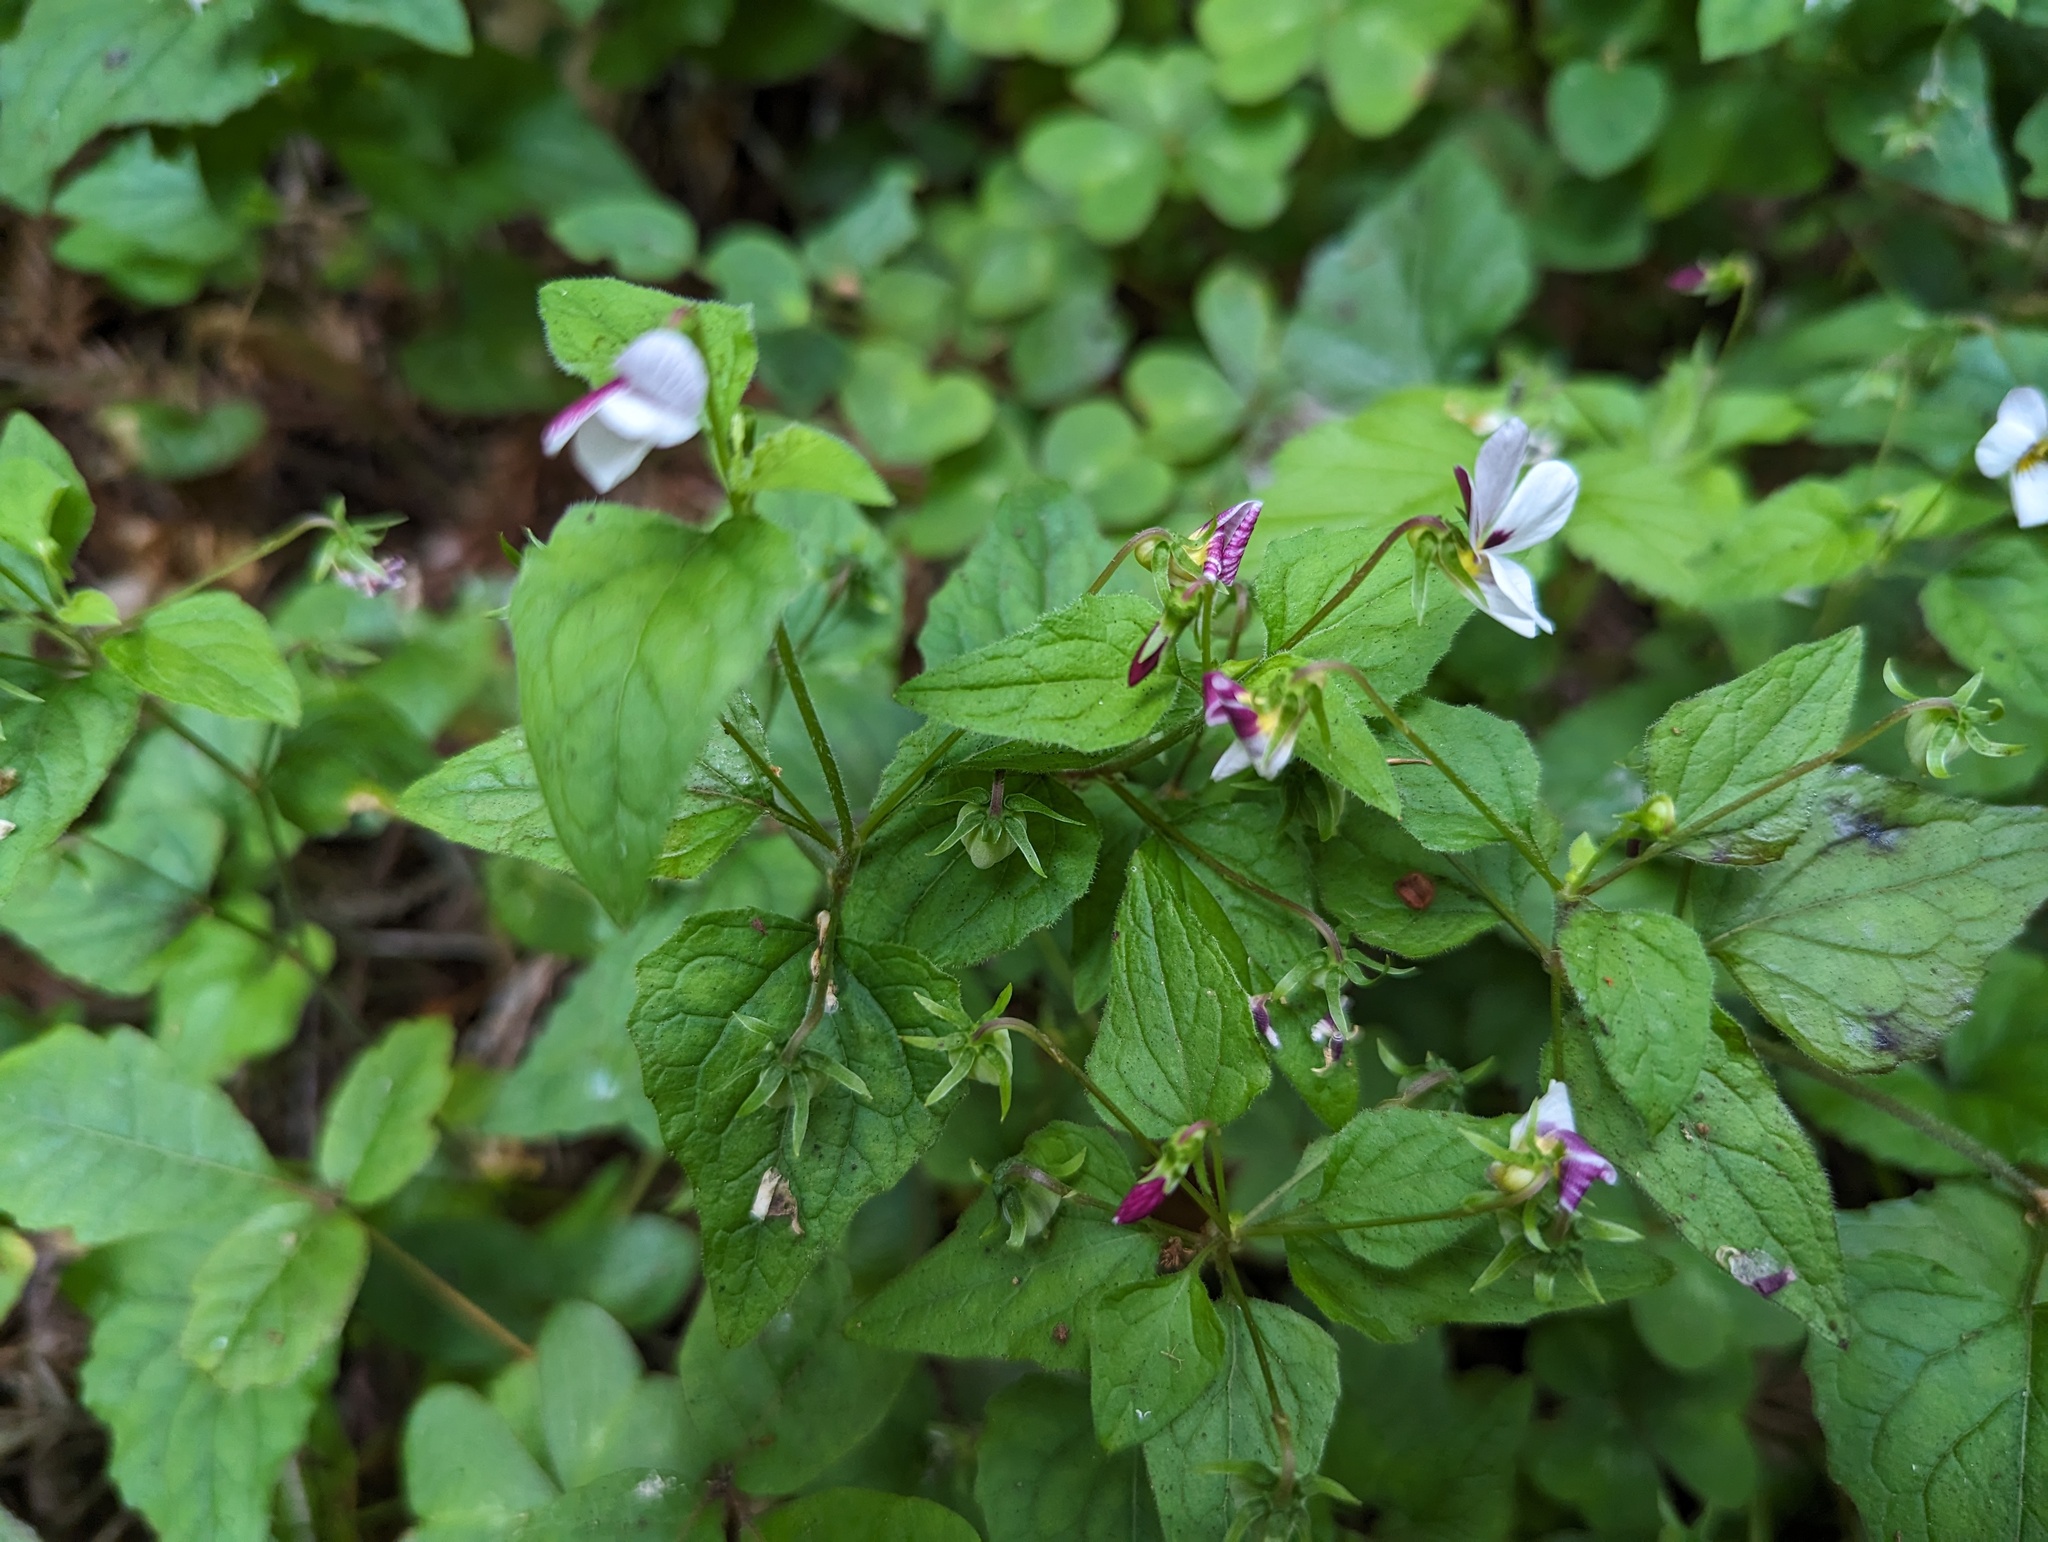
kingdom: Plantae
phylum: Tracheophyta
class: Magnoliopsida
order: Malpighiales
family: Violaceae
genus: Viola
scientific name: Viola ocellata
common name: Western heart's ease
